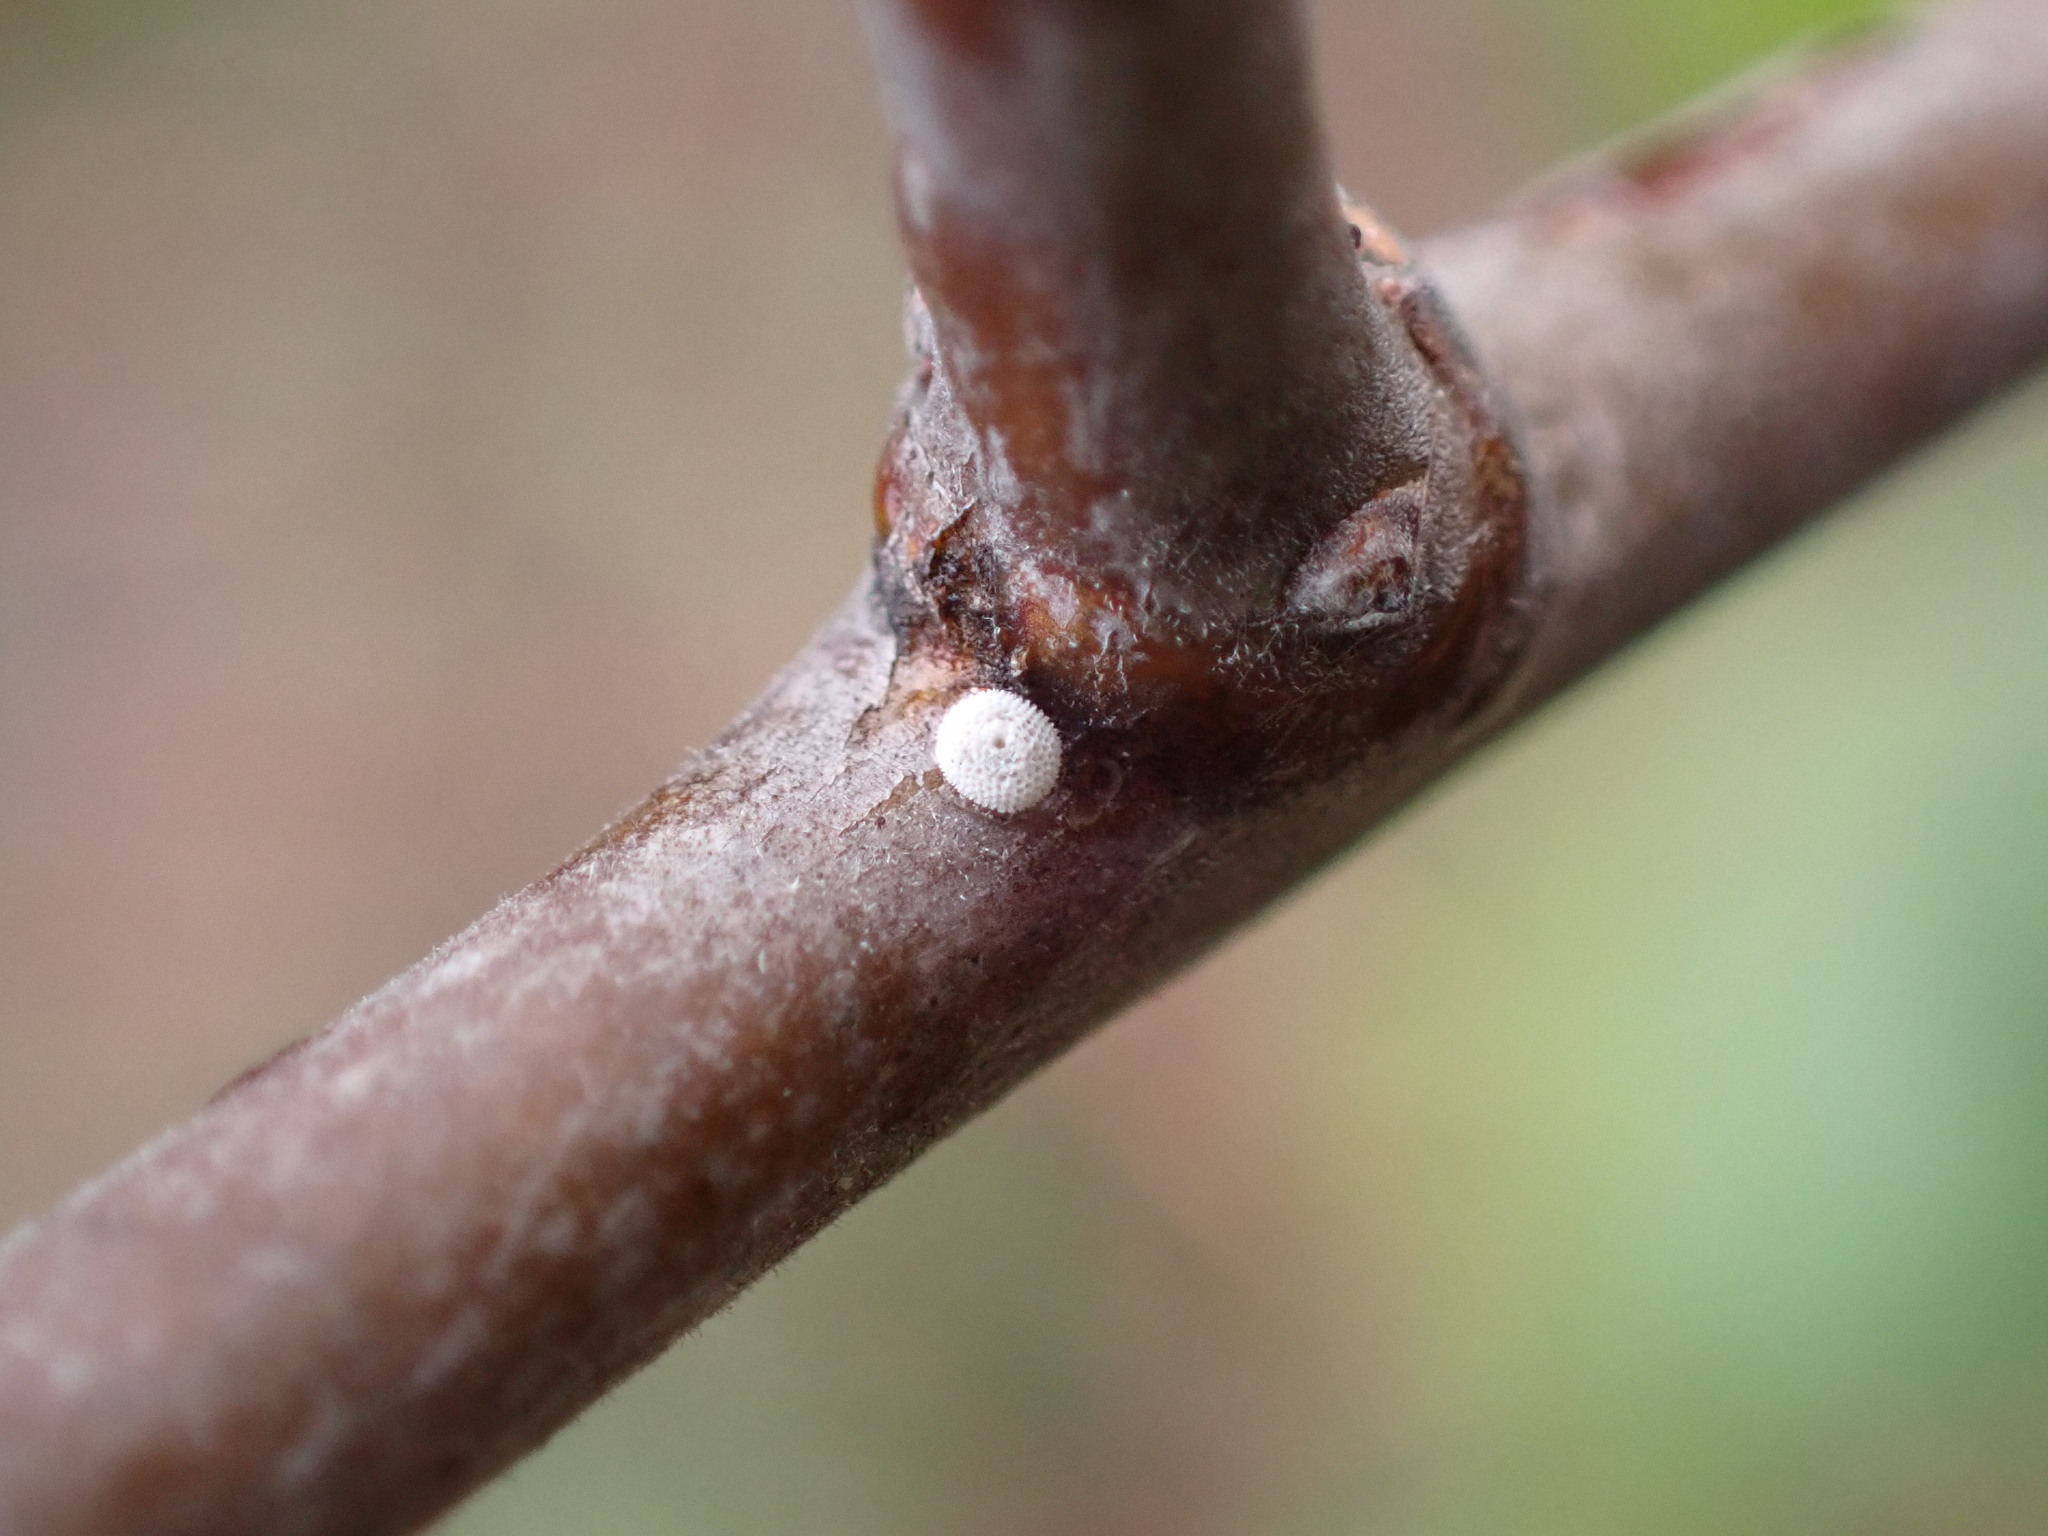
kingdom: Animalia
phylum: Arthropoda
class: Insecta
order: Lepidoptera
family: Lycaenidae
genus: Thecla
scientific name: Thecla betulae
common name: Brown hairstreak
